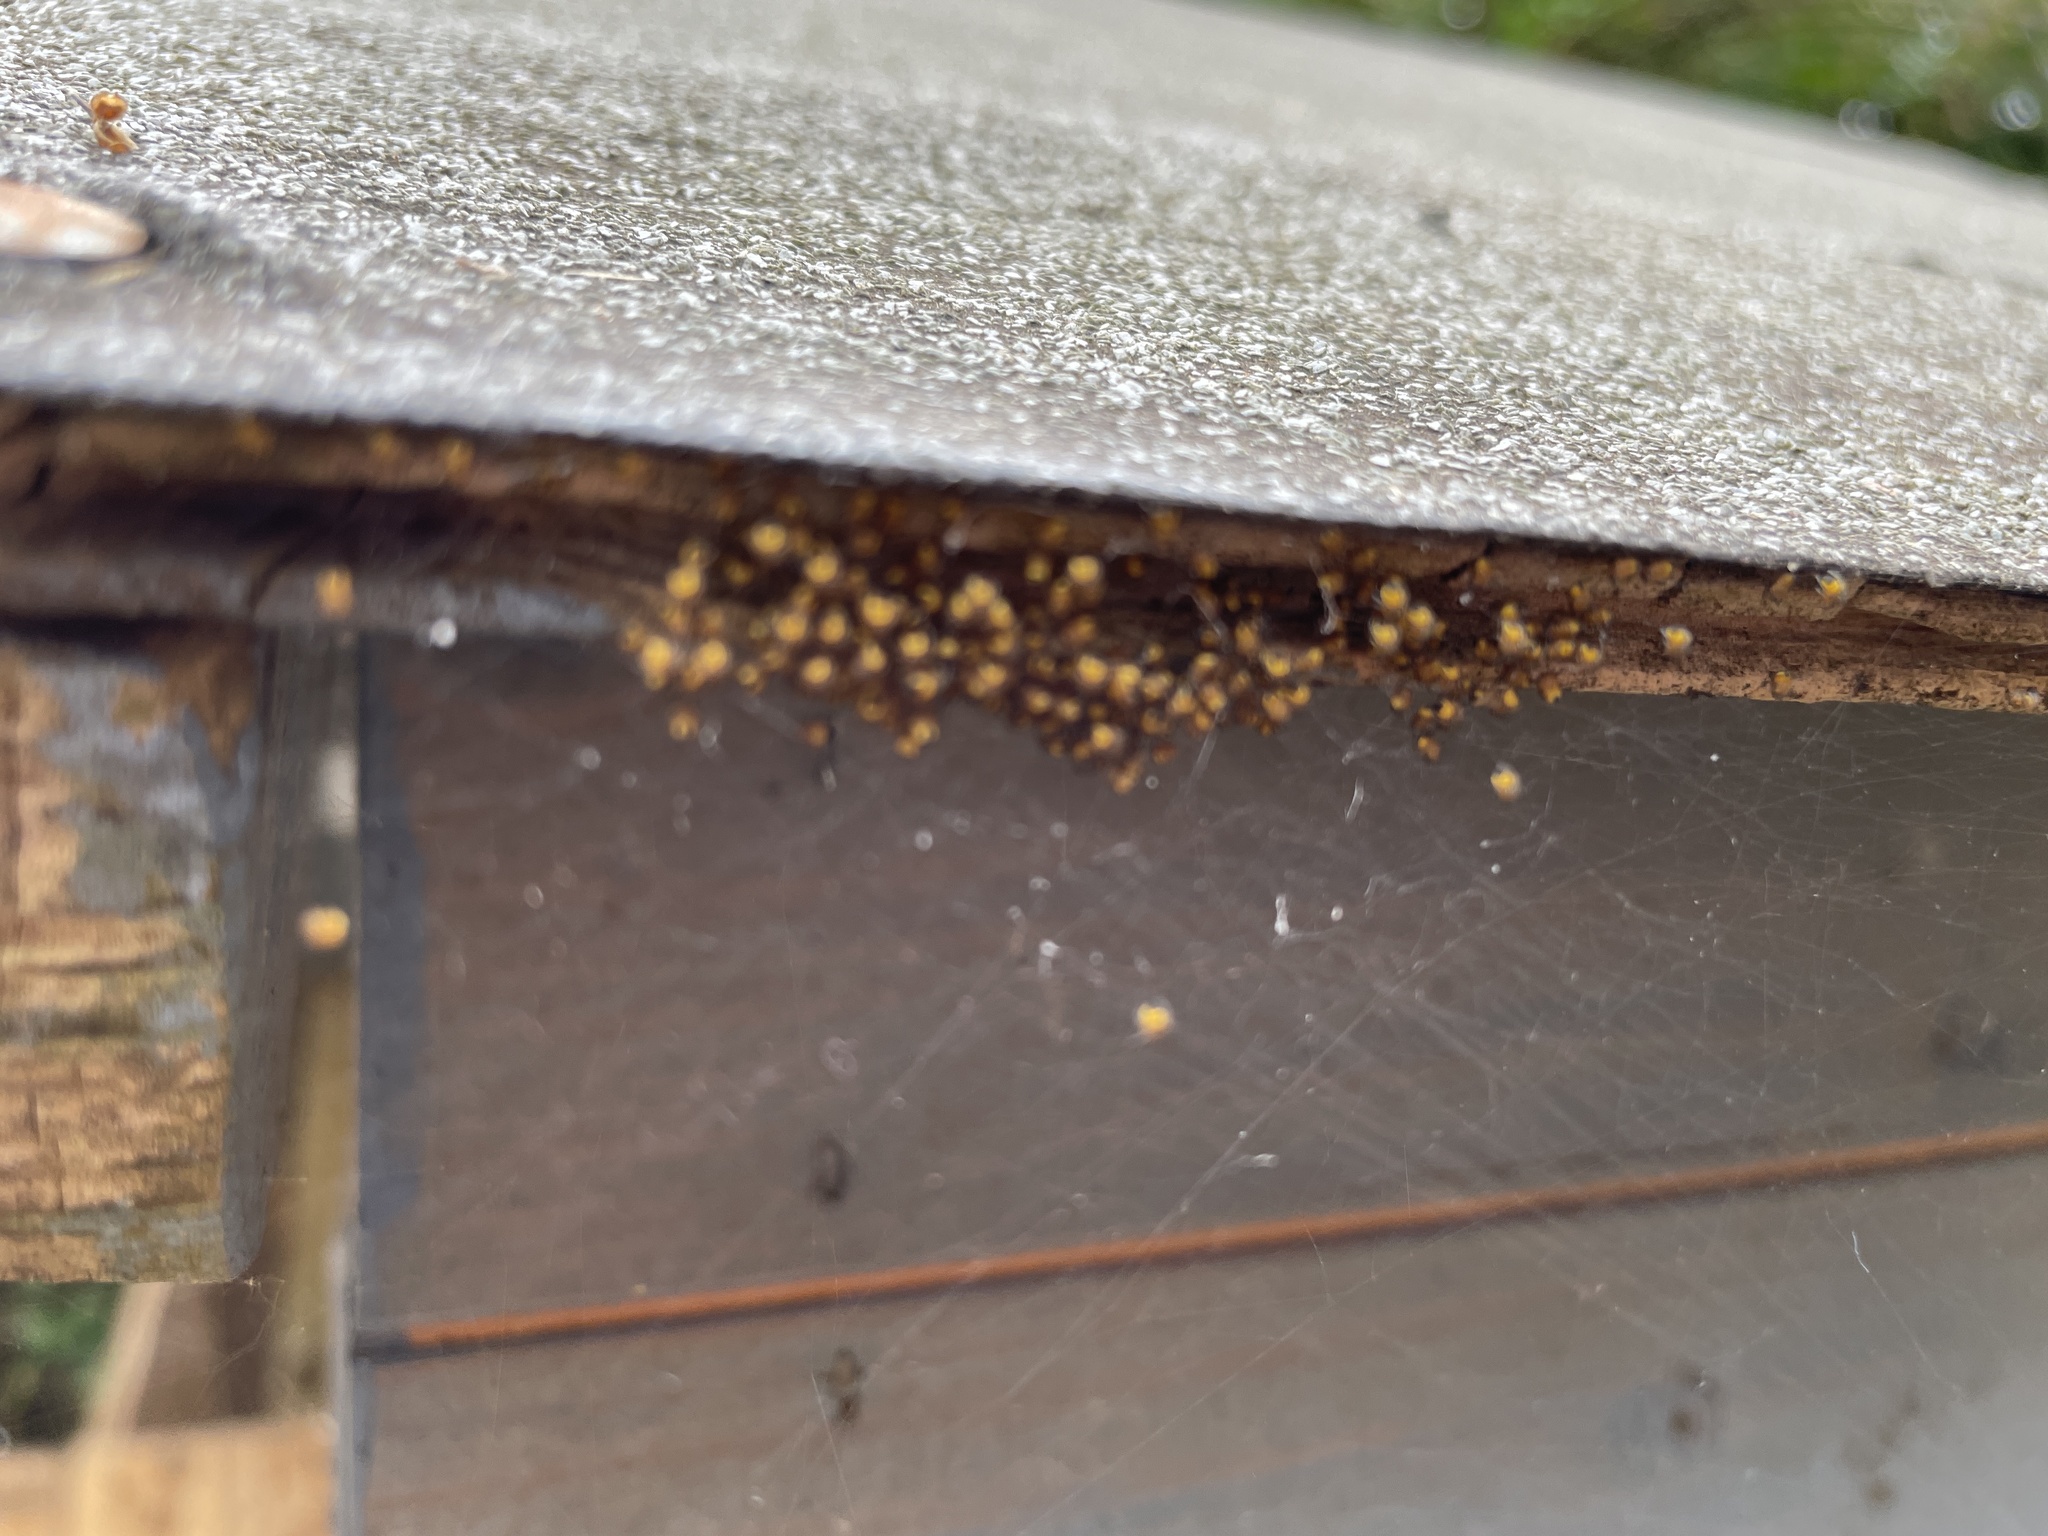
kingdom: Animalia
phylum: Arthropoda
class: Arachnida
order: Araneae
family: Araneidae
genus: Araneus
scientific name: Araneus diadematus
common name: Cross orbweaver
